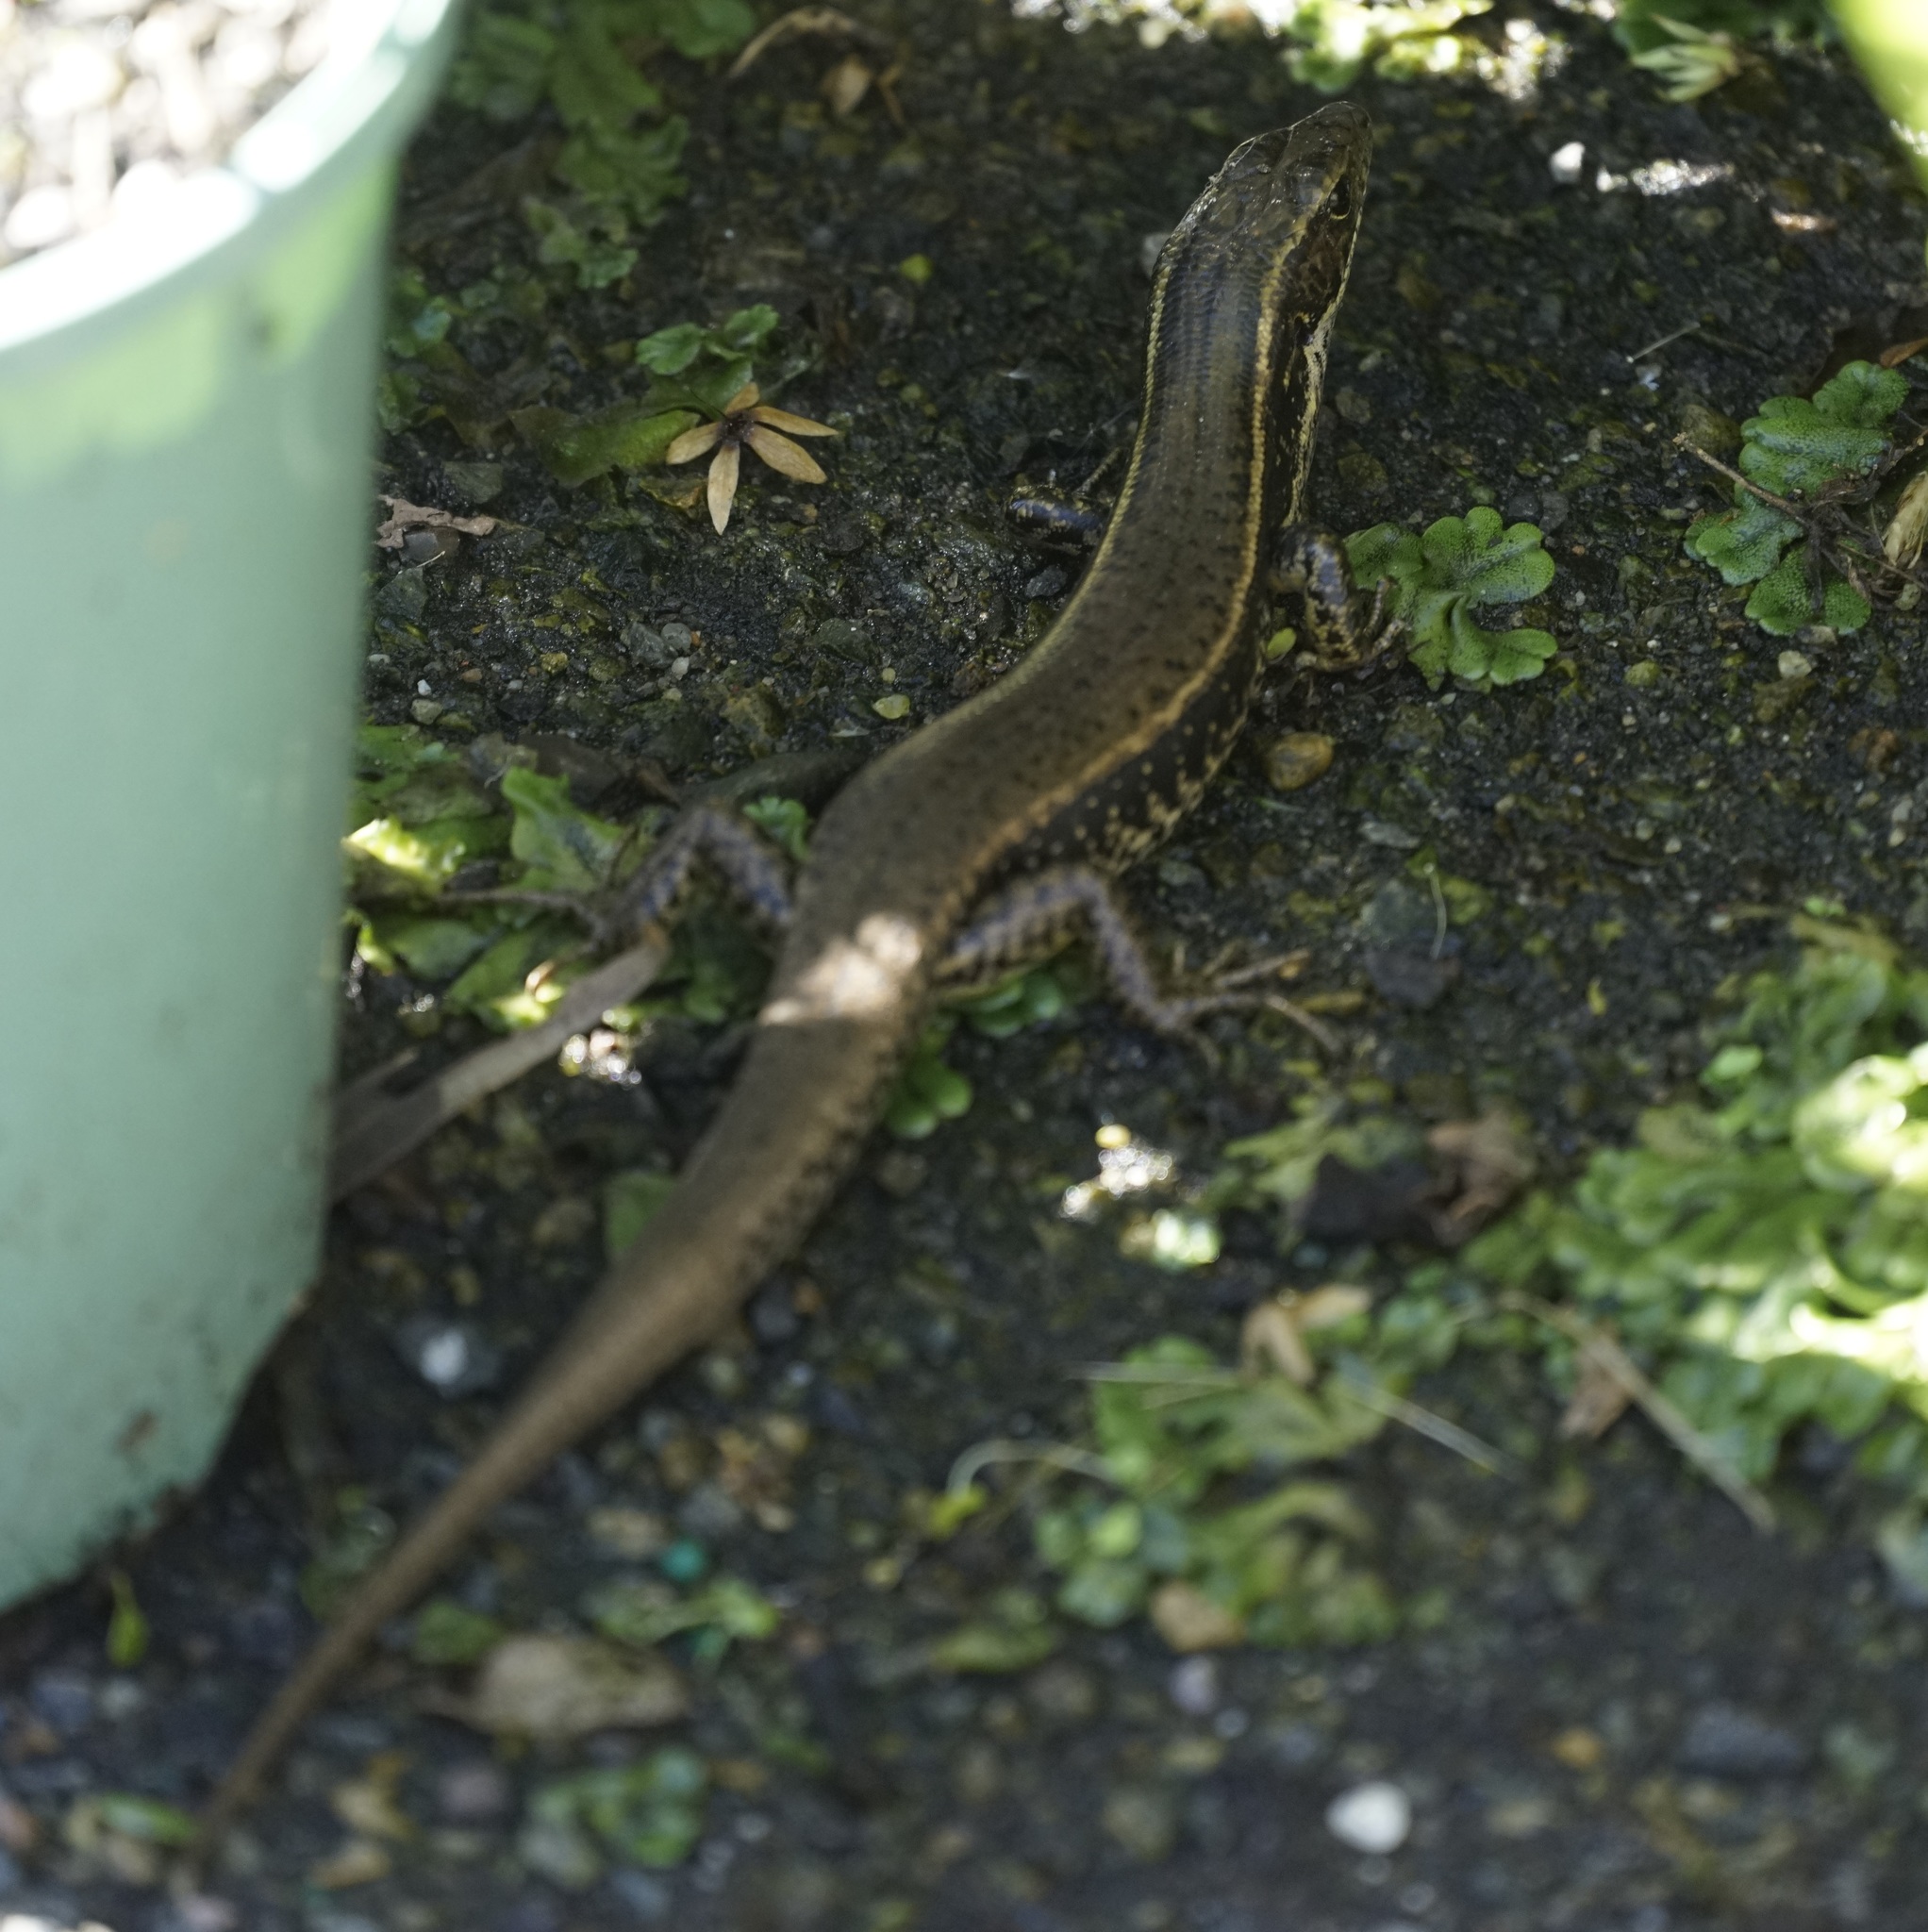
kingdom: Animalia
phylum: Chordata
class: Squamata
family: Scincidae
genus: Eulamprus
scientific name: Eulamprus quoyii
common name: Eastern water skink
